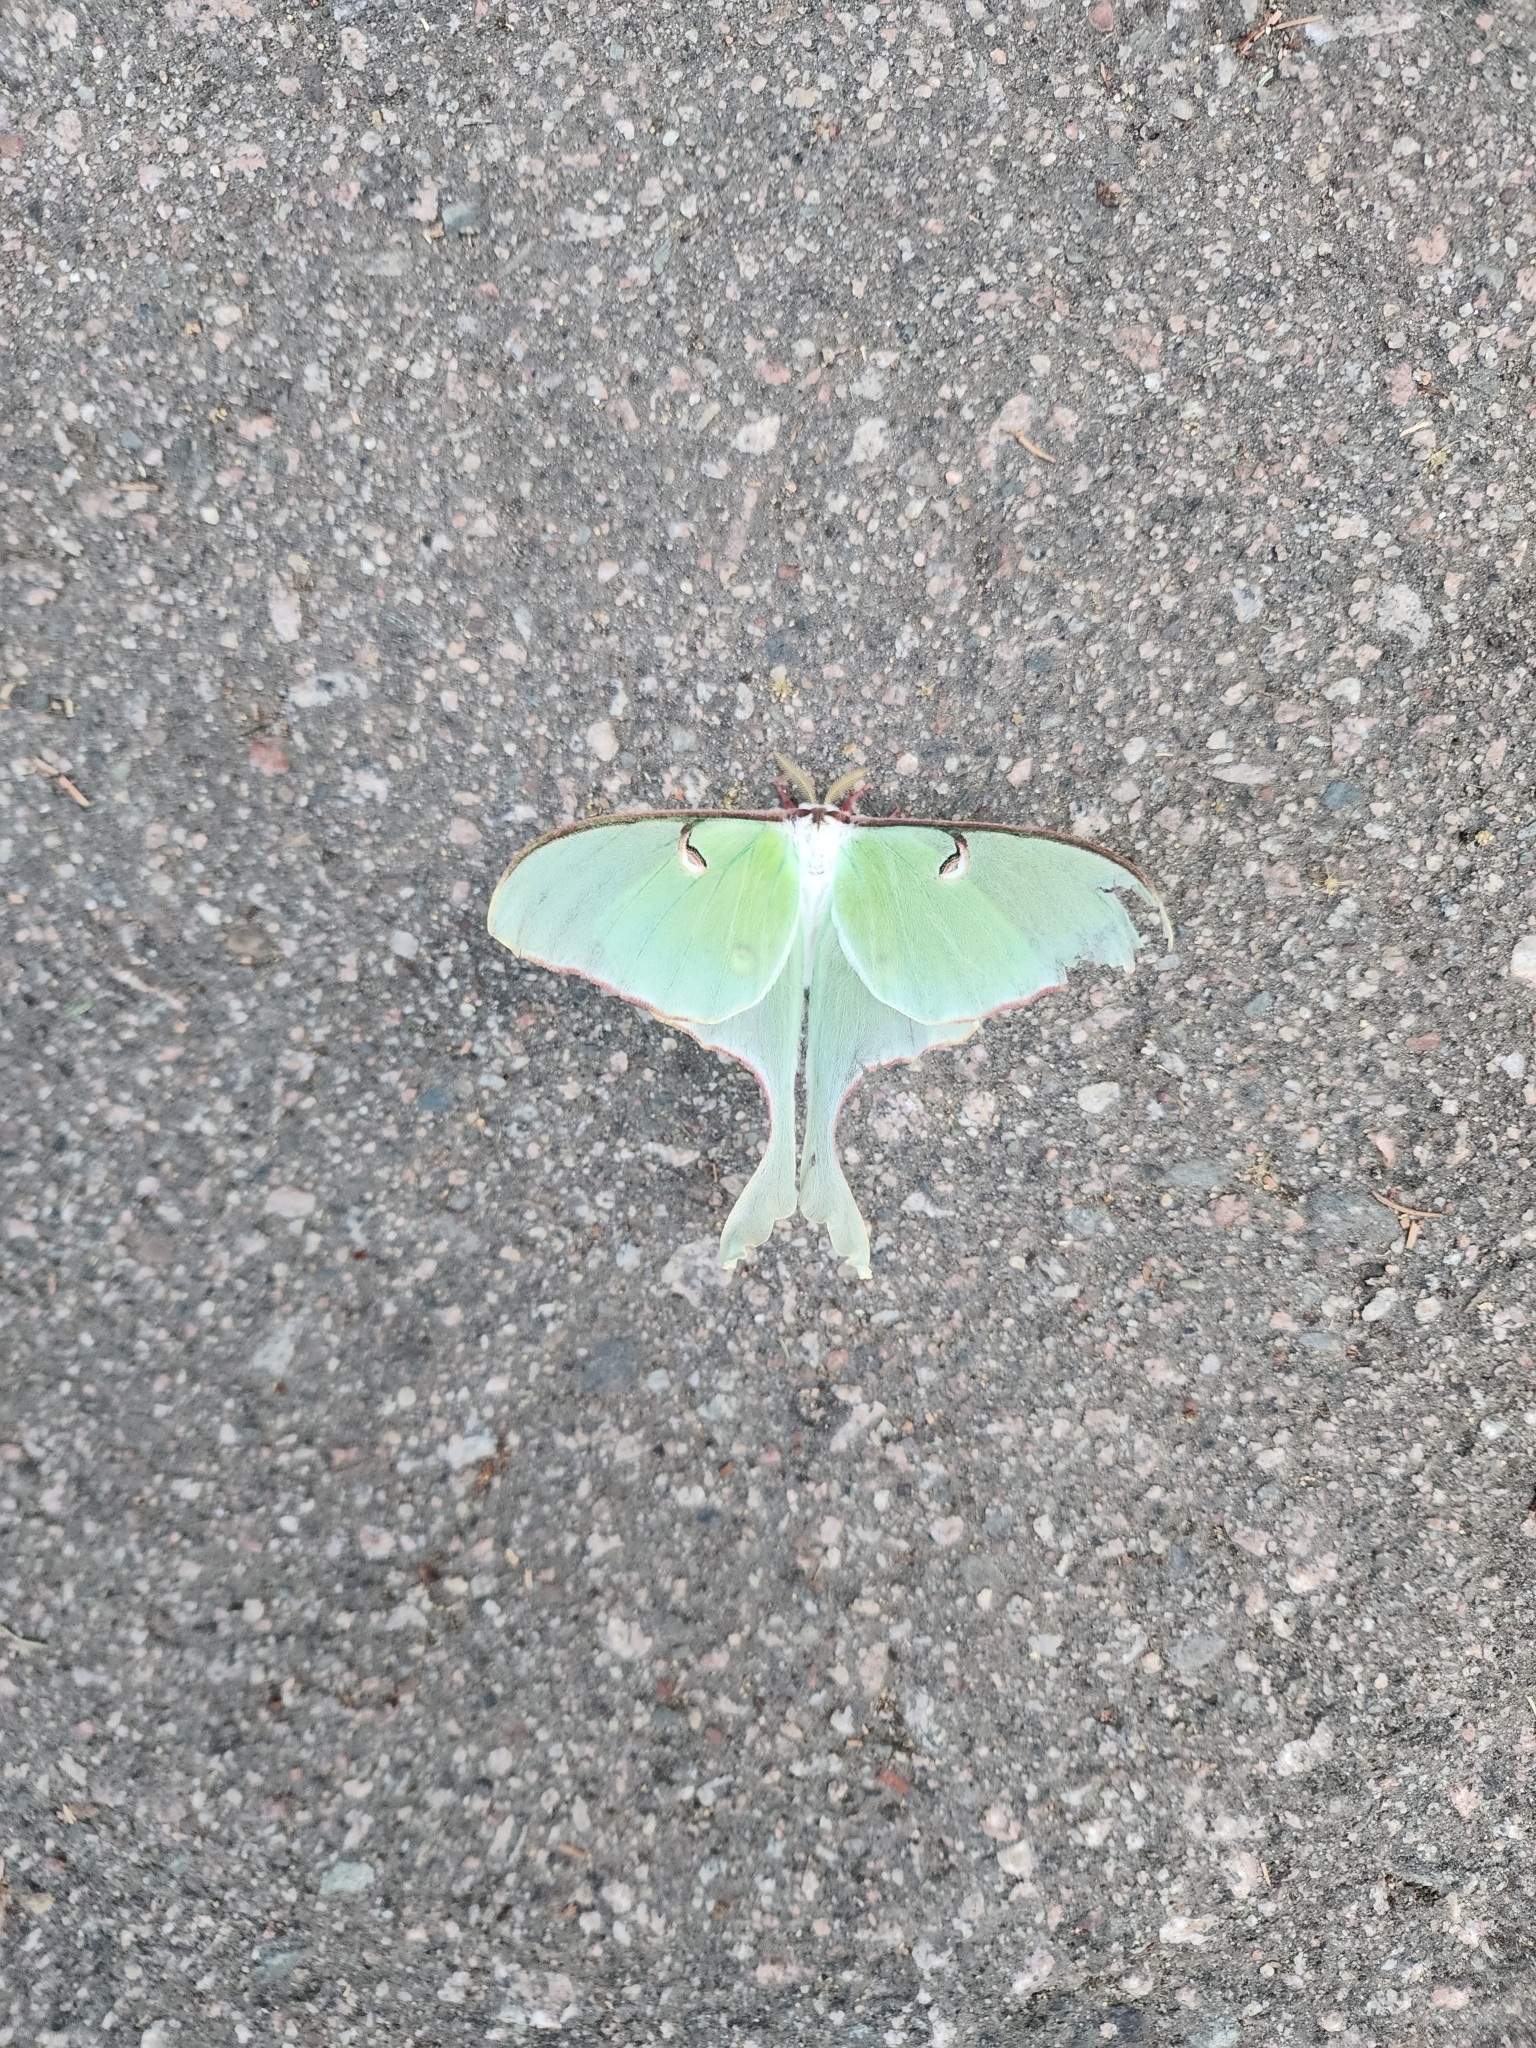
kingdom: Animalia
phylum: Arthropoda
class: Insecta
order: Lepidoptera
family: Saturniidae
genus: Actias
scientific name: Actias luna
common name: Luna moth
